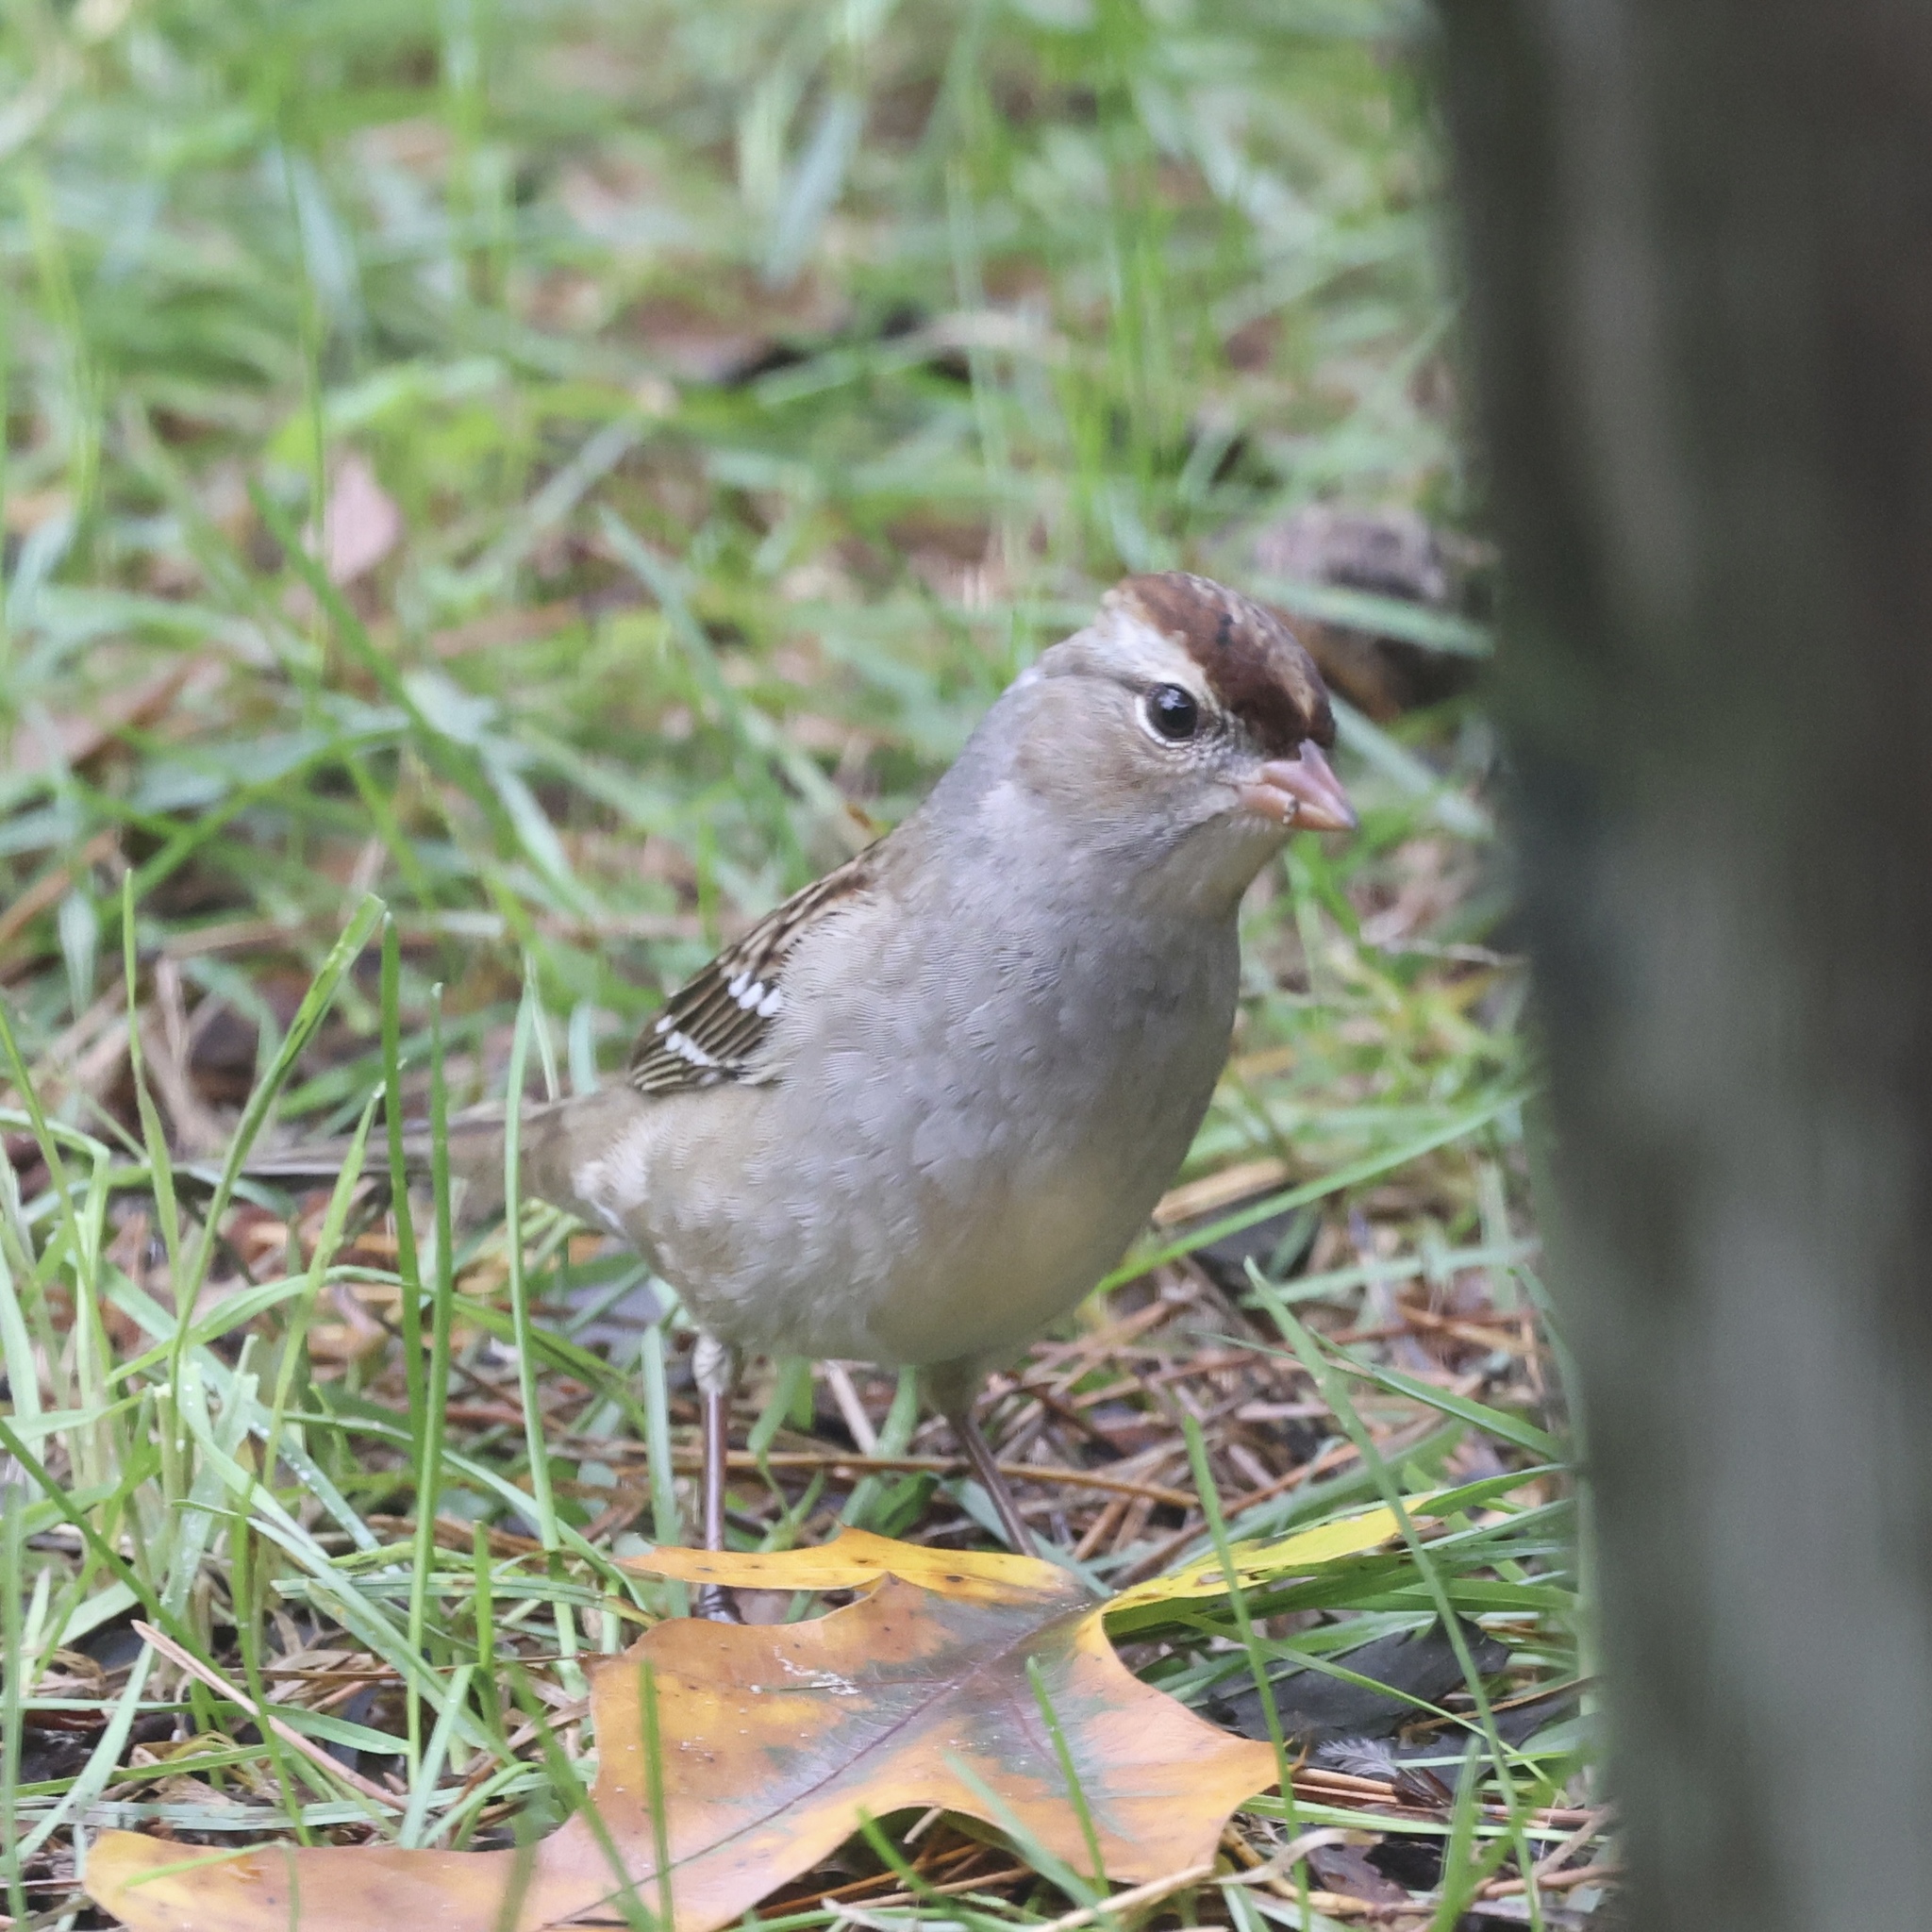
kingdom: Animalia
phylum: Chordata
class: Aves
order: Passeriformes
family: Passerellidae
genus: Zonotrichia
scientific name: Zonotrichia leucophrys
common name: White-crowned sparrow
